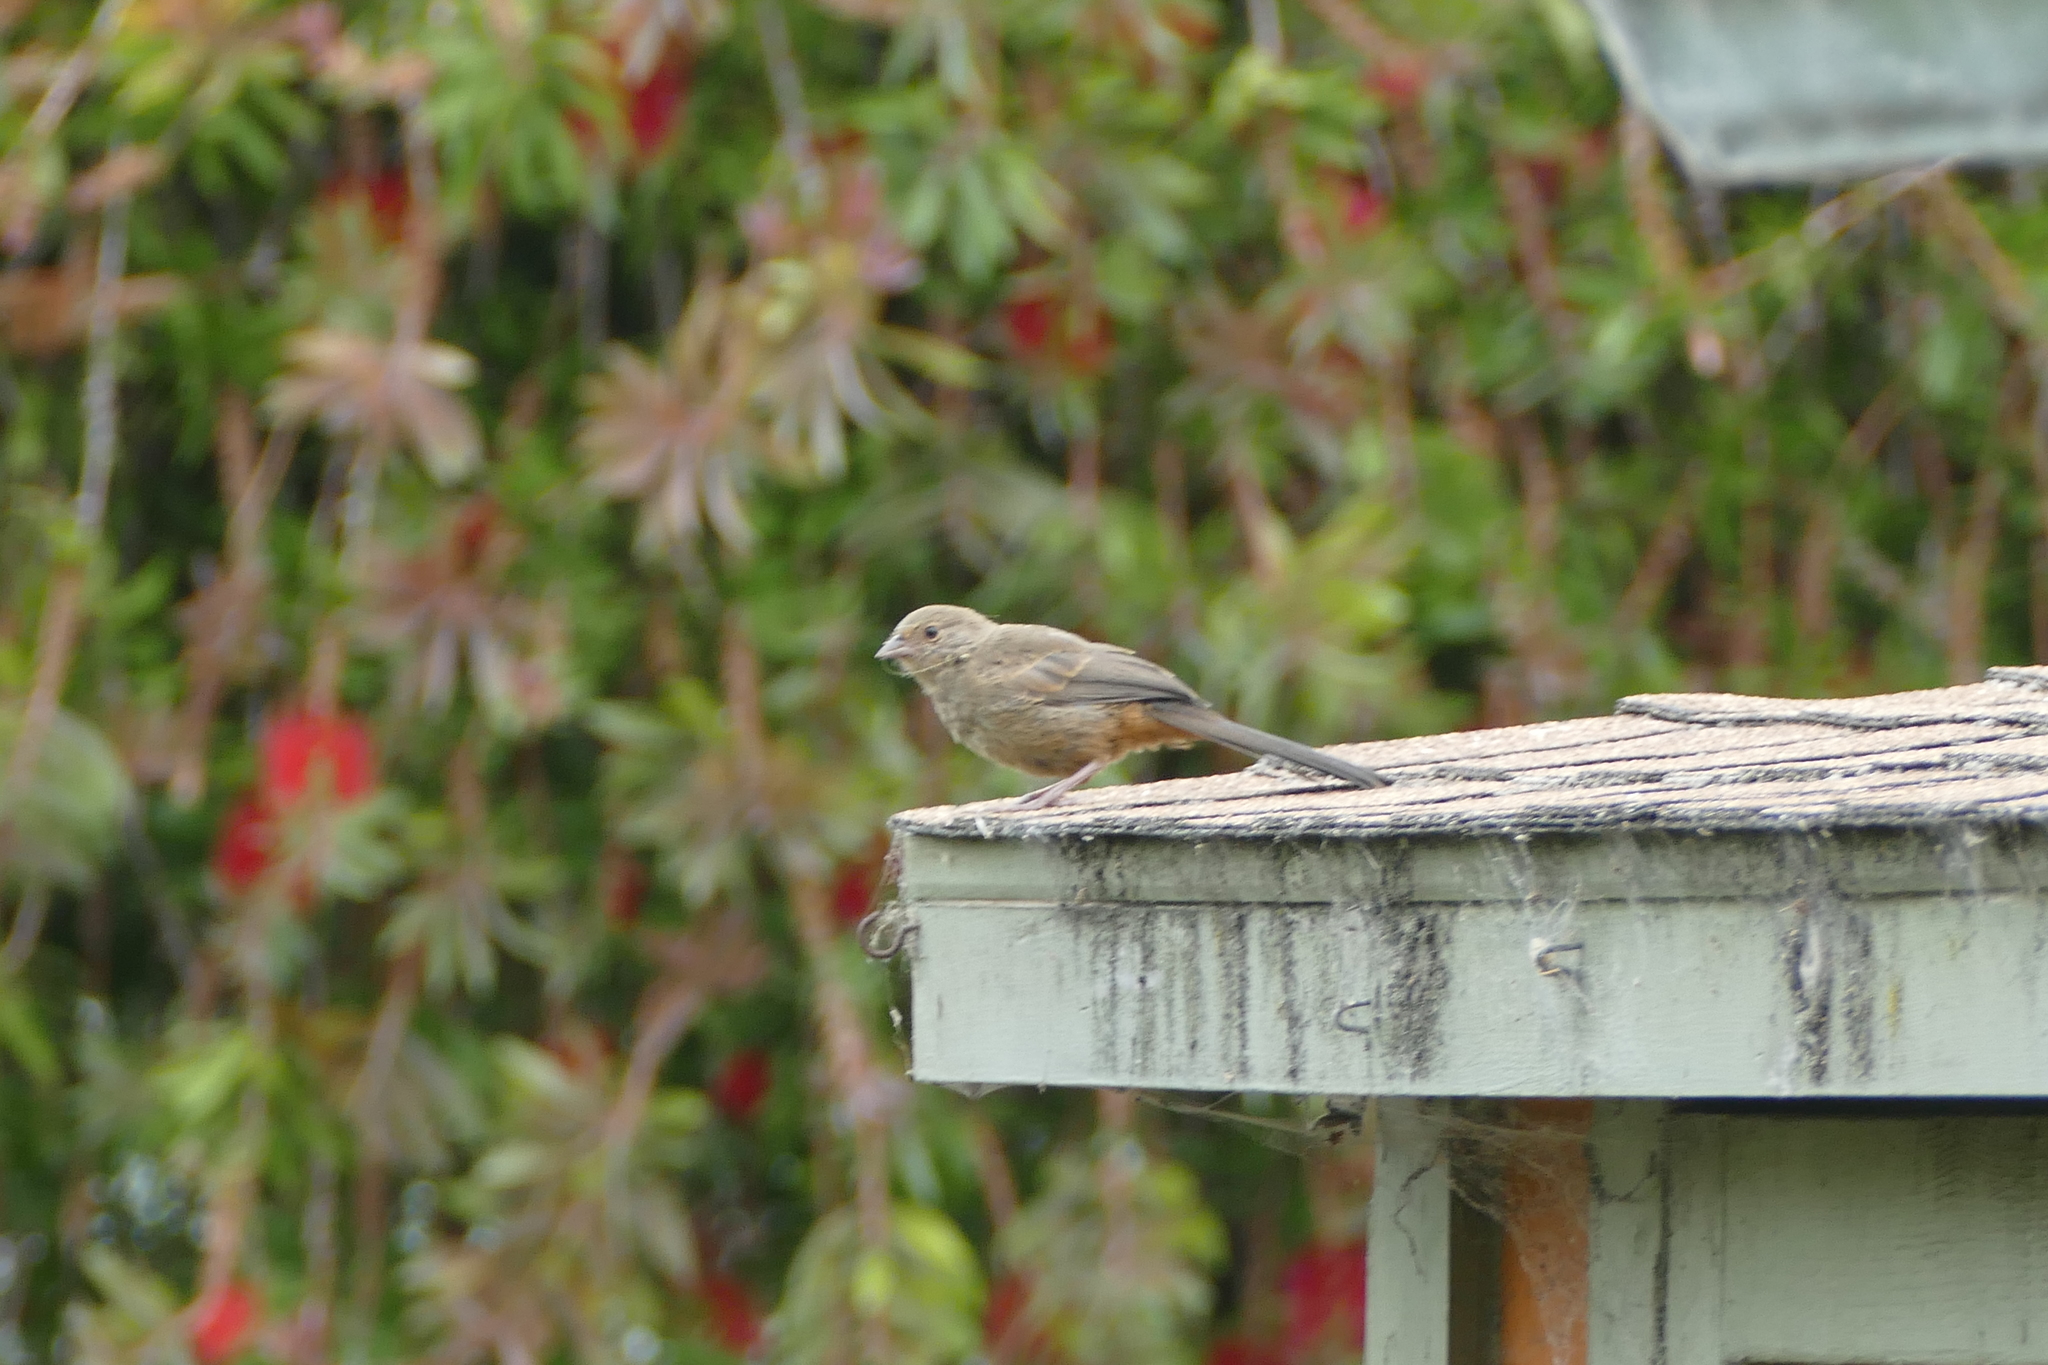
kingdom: Animalia
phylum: Chordata
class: Aves
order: Passeriformes
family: Passerellidae
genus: Melozone
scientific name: Melozone crissalis
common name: California towhee
